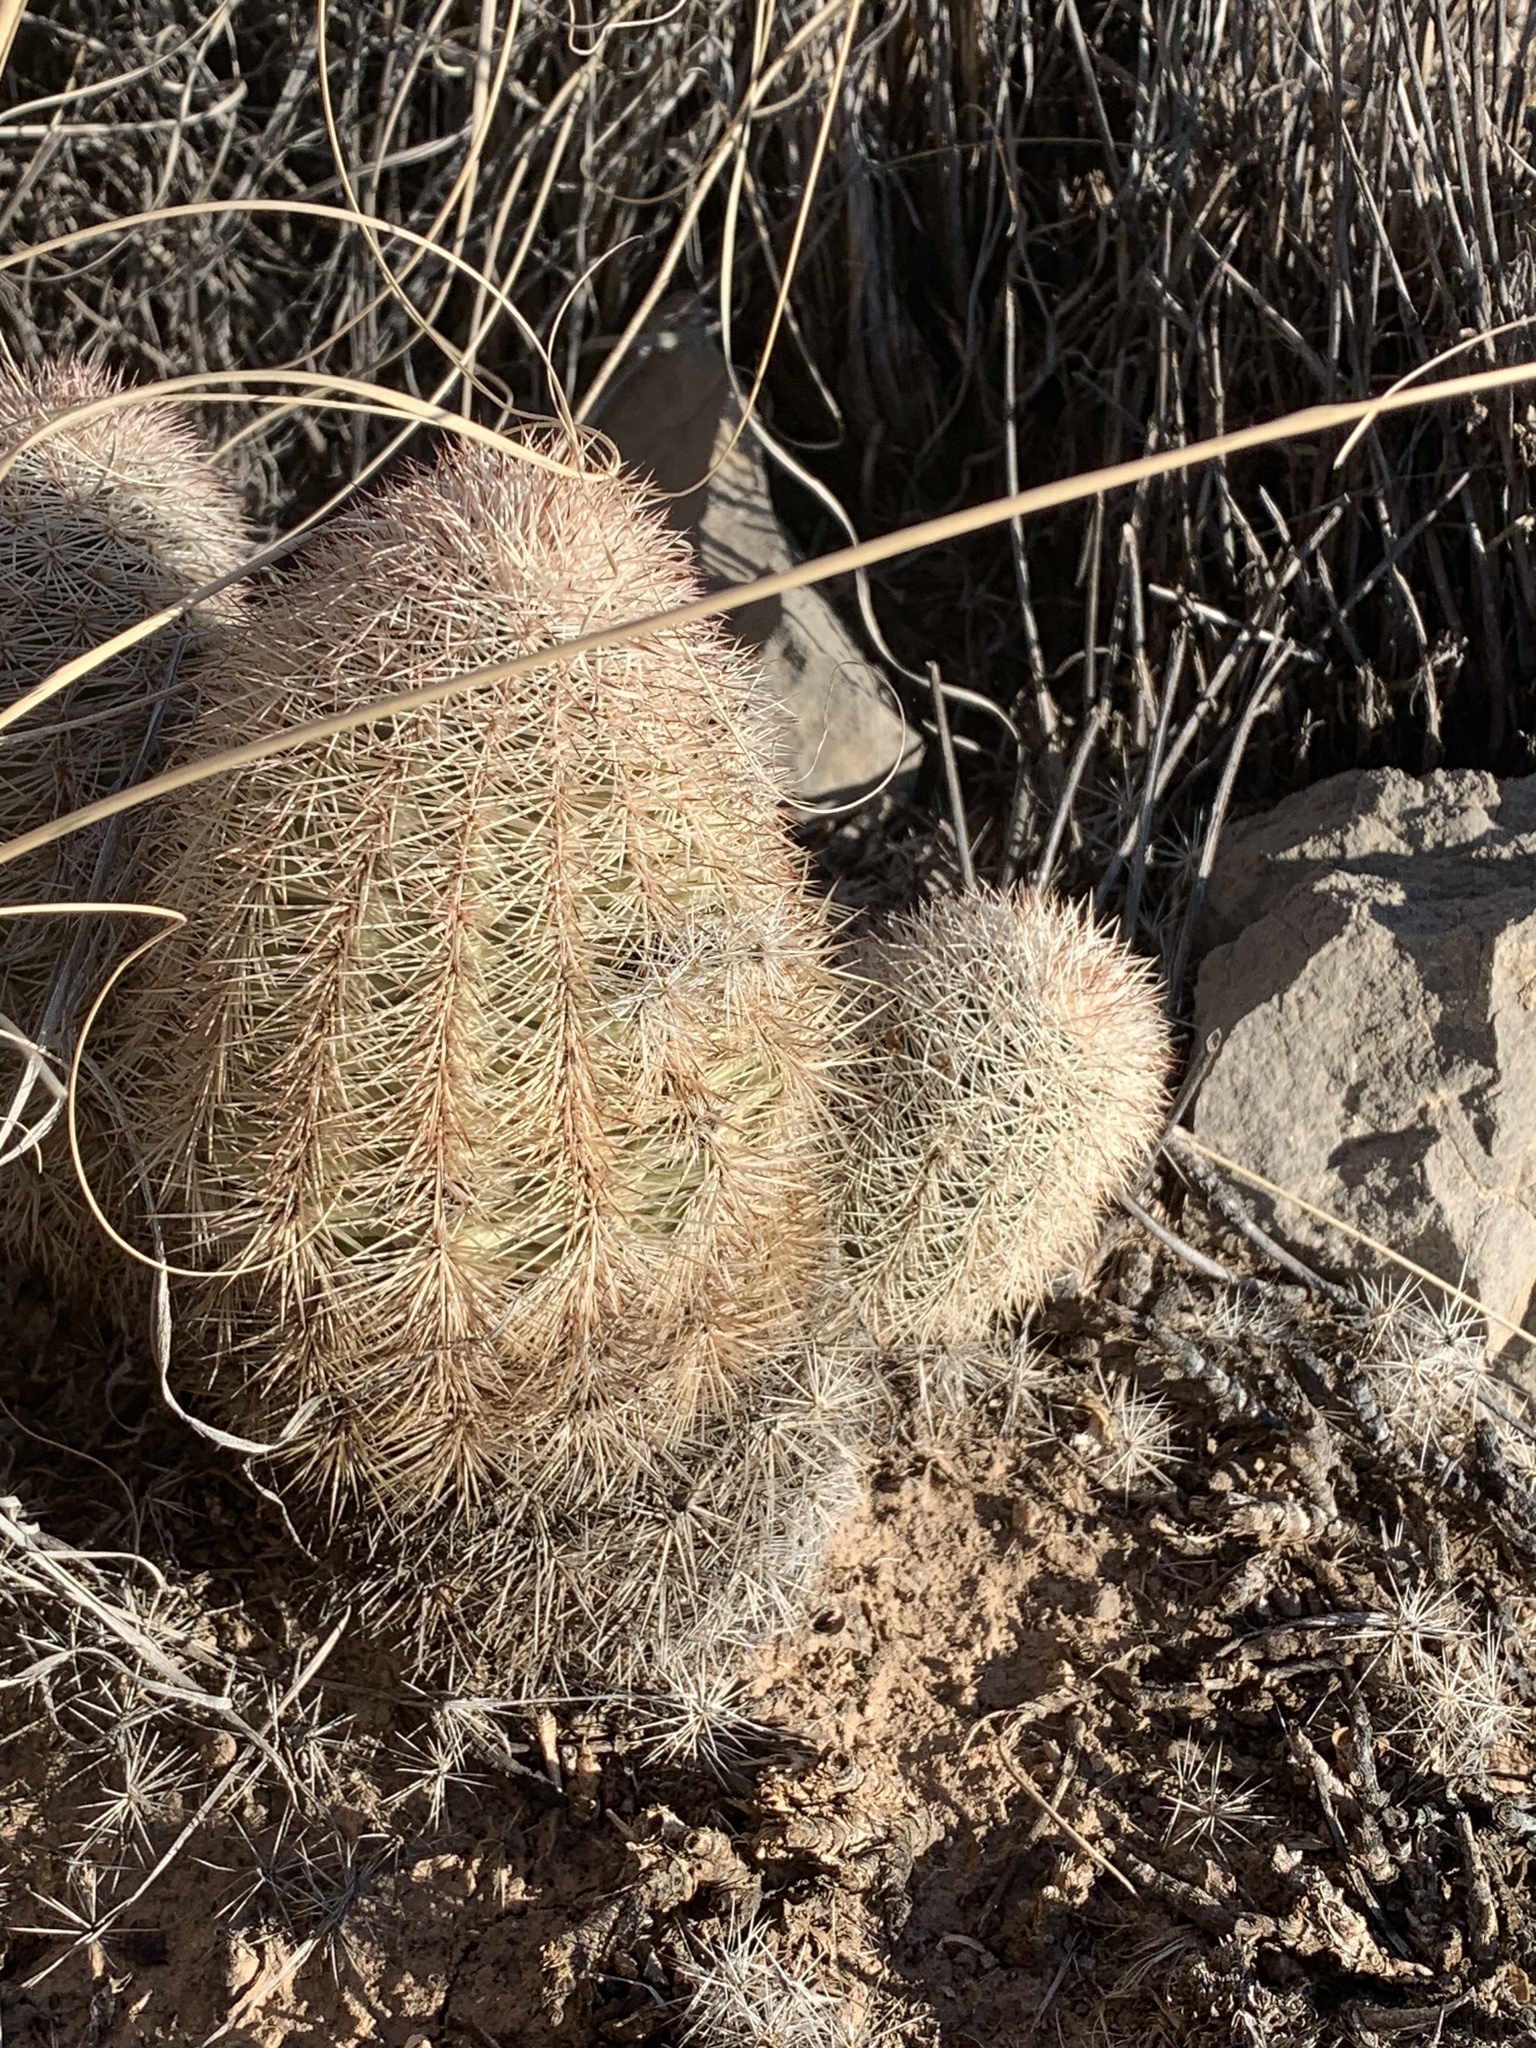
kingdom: Plantae
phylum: Tracheophyta
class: Magnoliopsida
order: Caryophyllales
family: Cactaceae
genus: Echinocereus
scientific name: Echinocereus dasyacanthus
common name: Spiny hedgehog cactus
